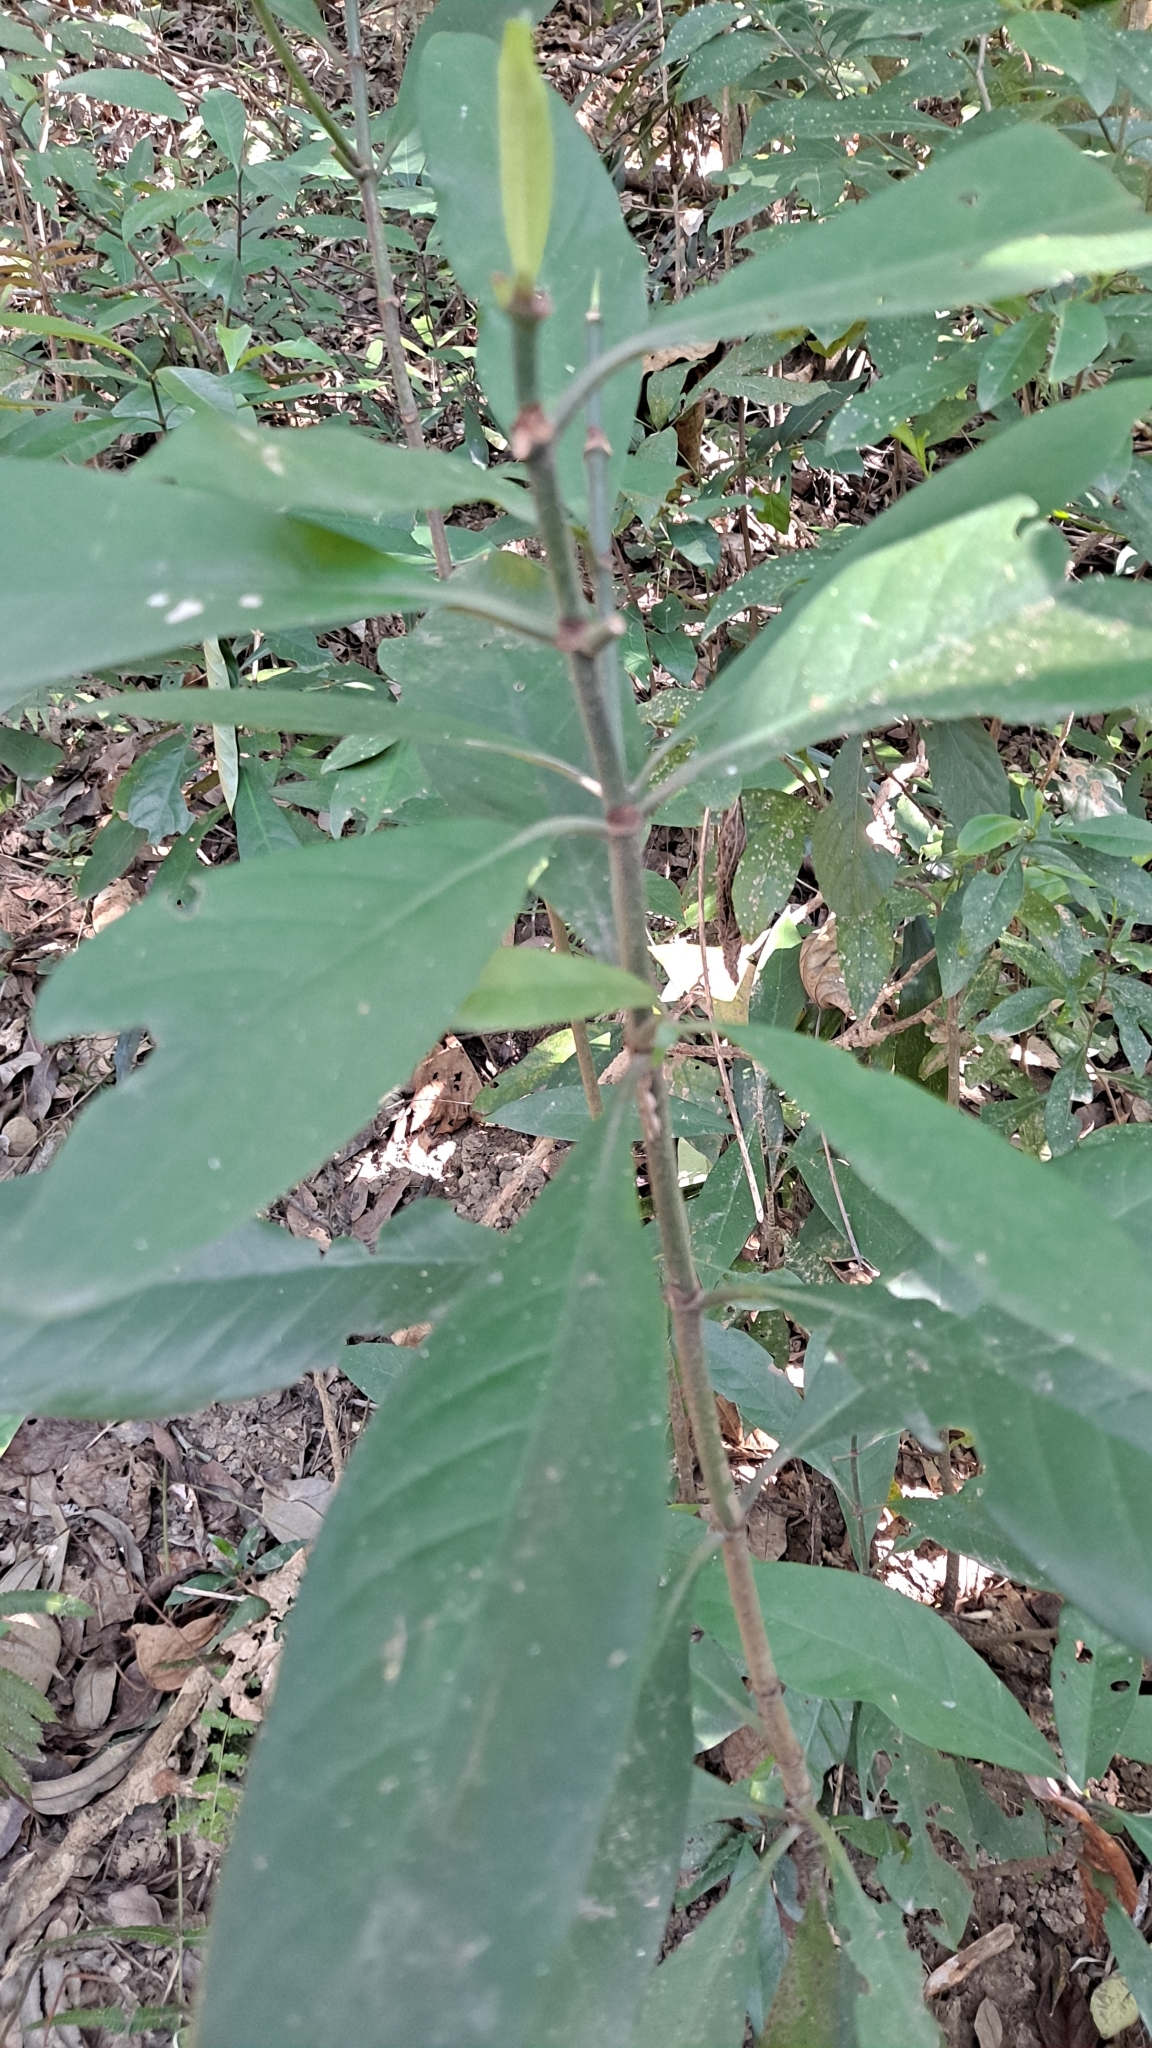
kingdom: Plantae
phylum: Tracheophyta
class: Magnoliopsida
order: Gentianales
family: Rubiaceae
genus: Psychotria
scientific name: Psychotria asiatica
